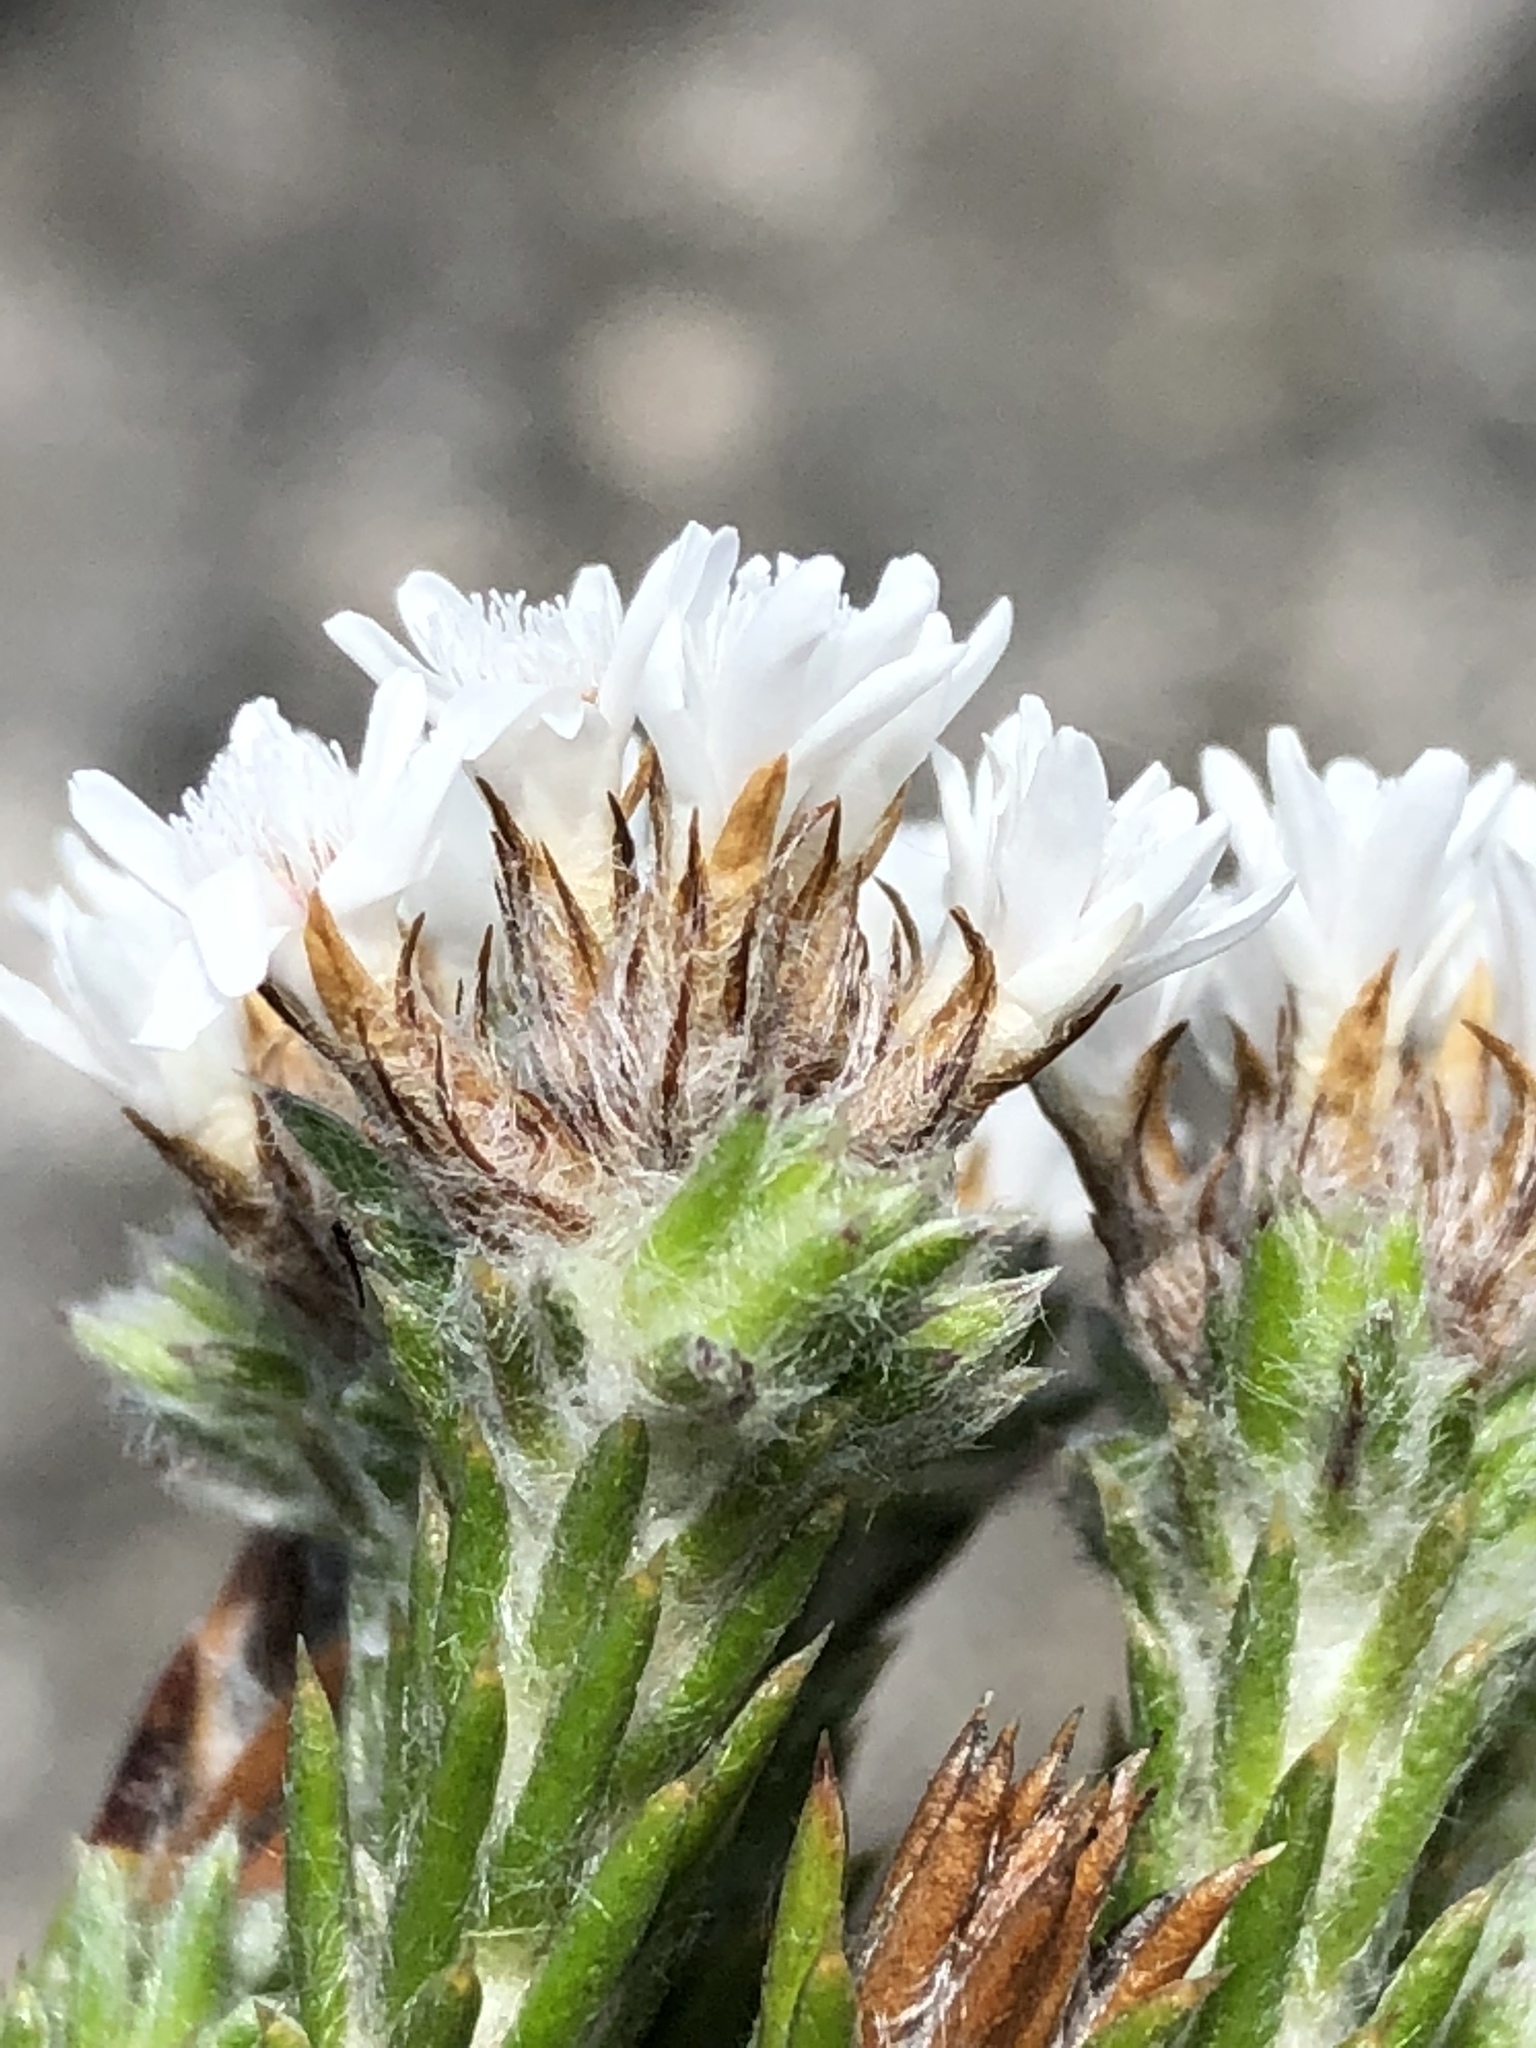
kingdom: Plantae
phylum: Tracheophyta
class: Magnoliopsida
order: Asterales
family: Asteraceae
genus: Metalasia
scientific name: Metalasia strictifolia
